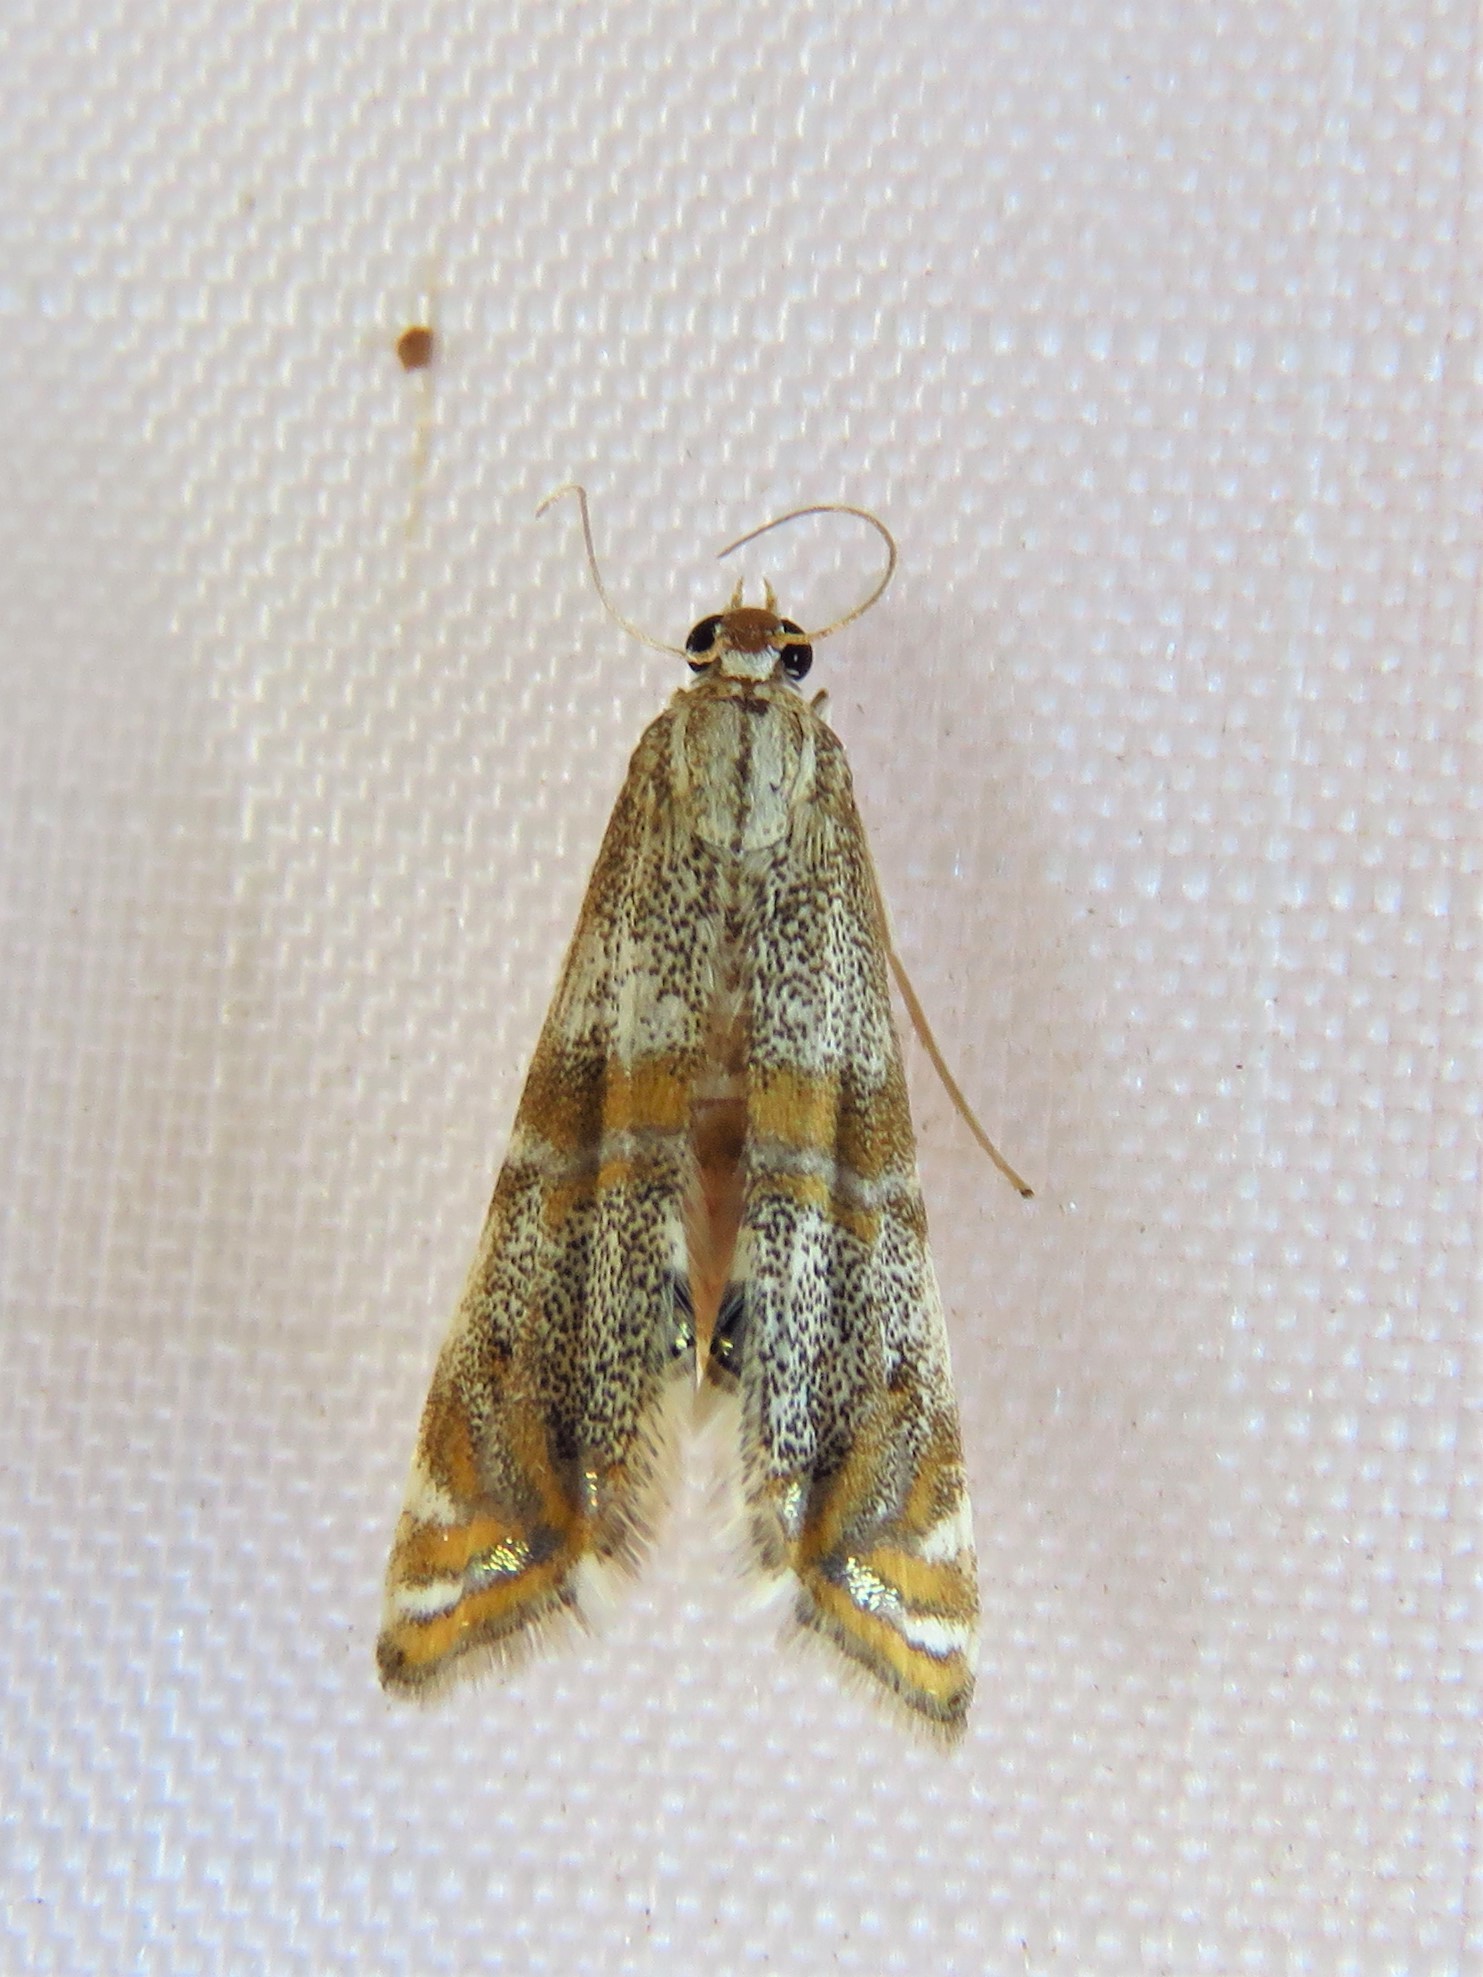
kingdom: Animalia
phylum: Arthropoda
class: Insecta
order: Lepidoptera
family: Crambidae
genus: Petrophila
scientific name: Petrophila bifascialis
